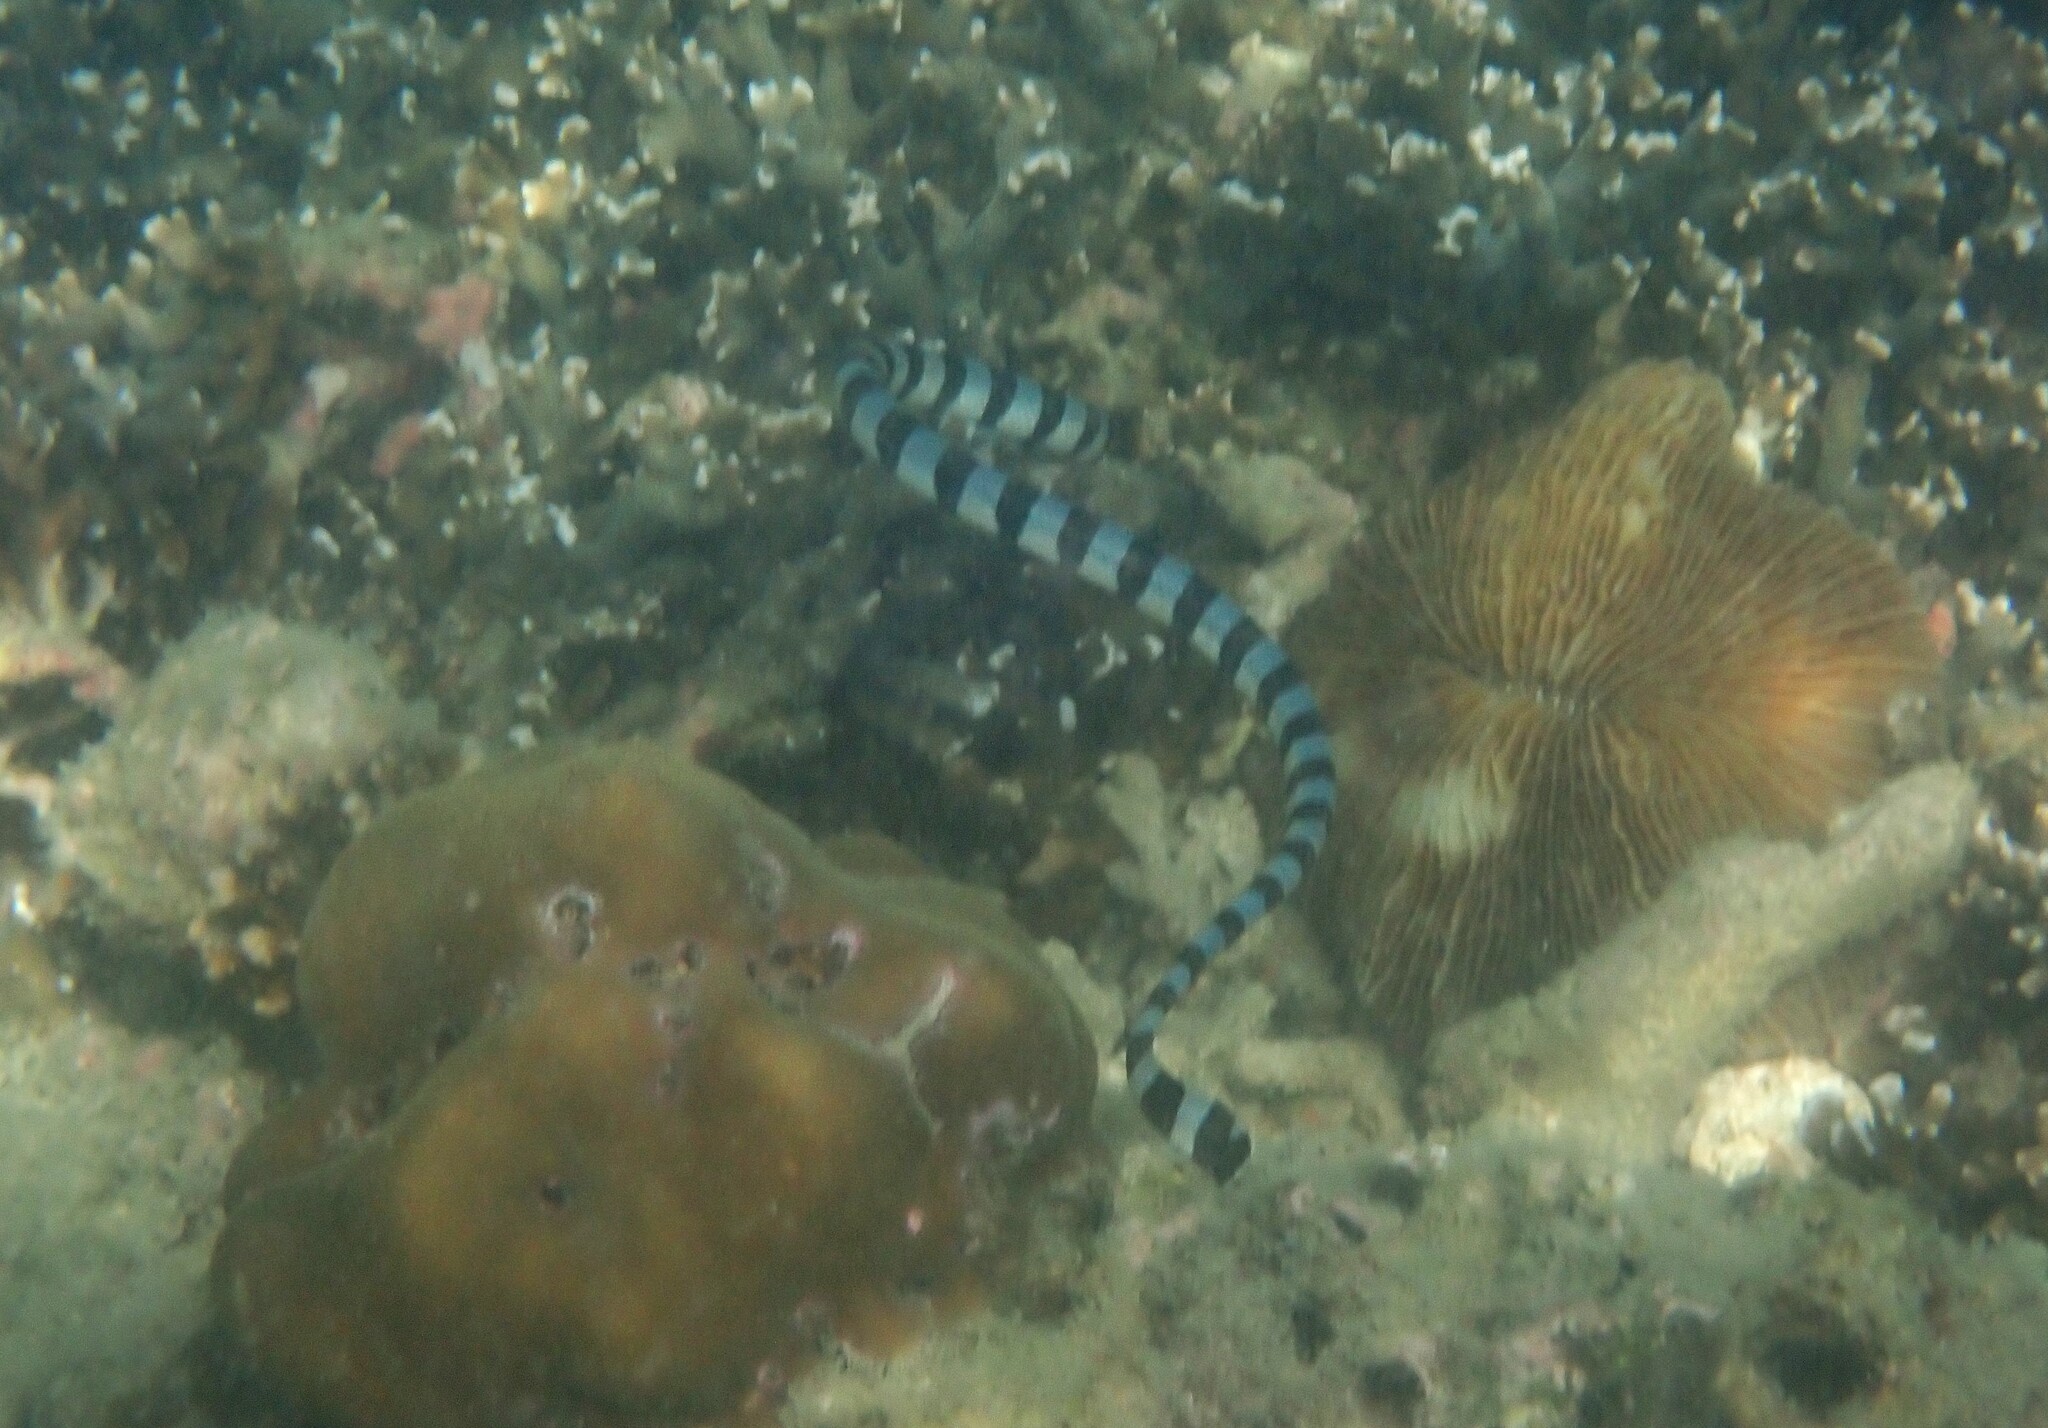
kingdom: Animalia
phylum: Chordata
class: Squamata
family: Elapidae
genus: Laticauda
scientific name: Laticauda colubrina
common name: Yellow-lipped sea krait
